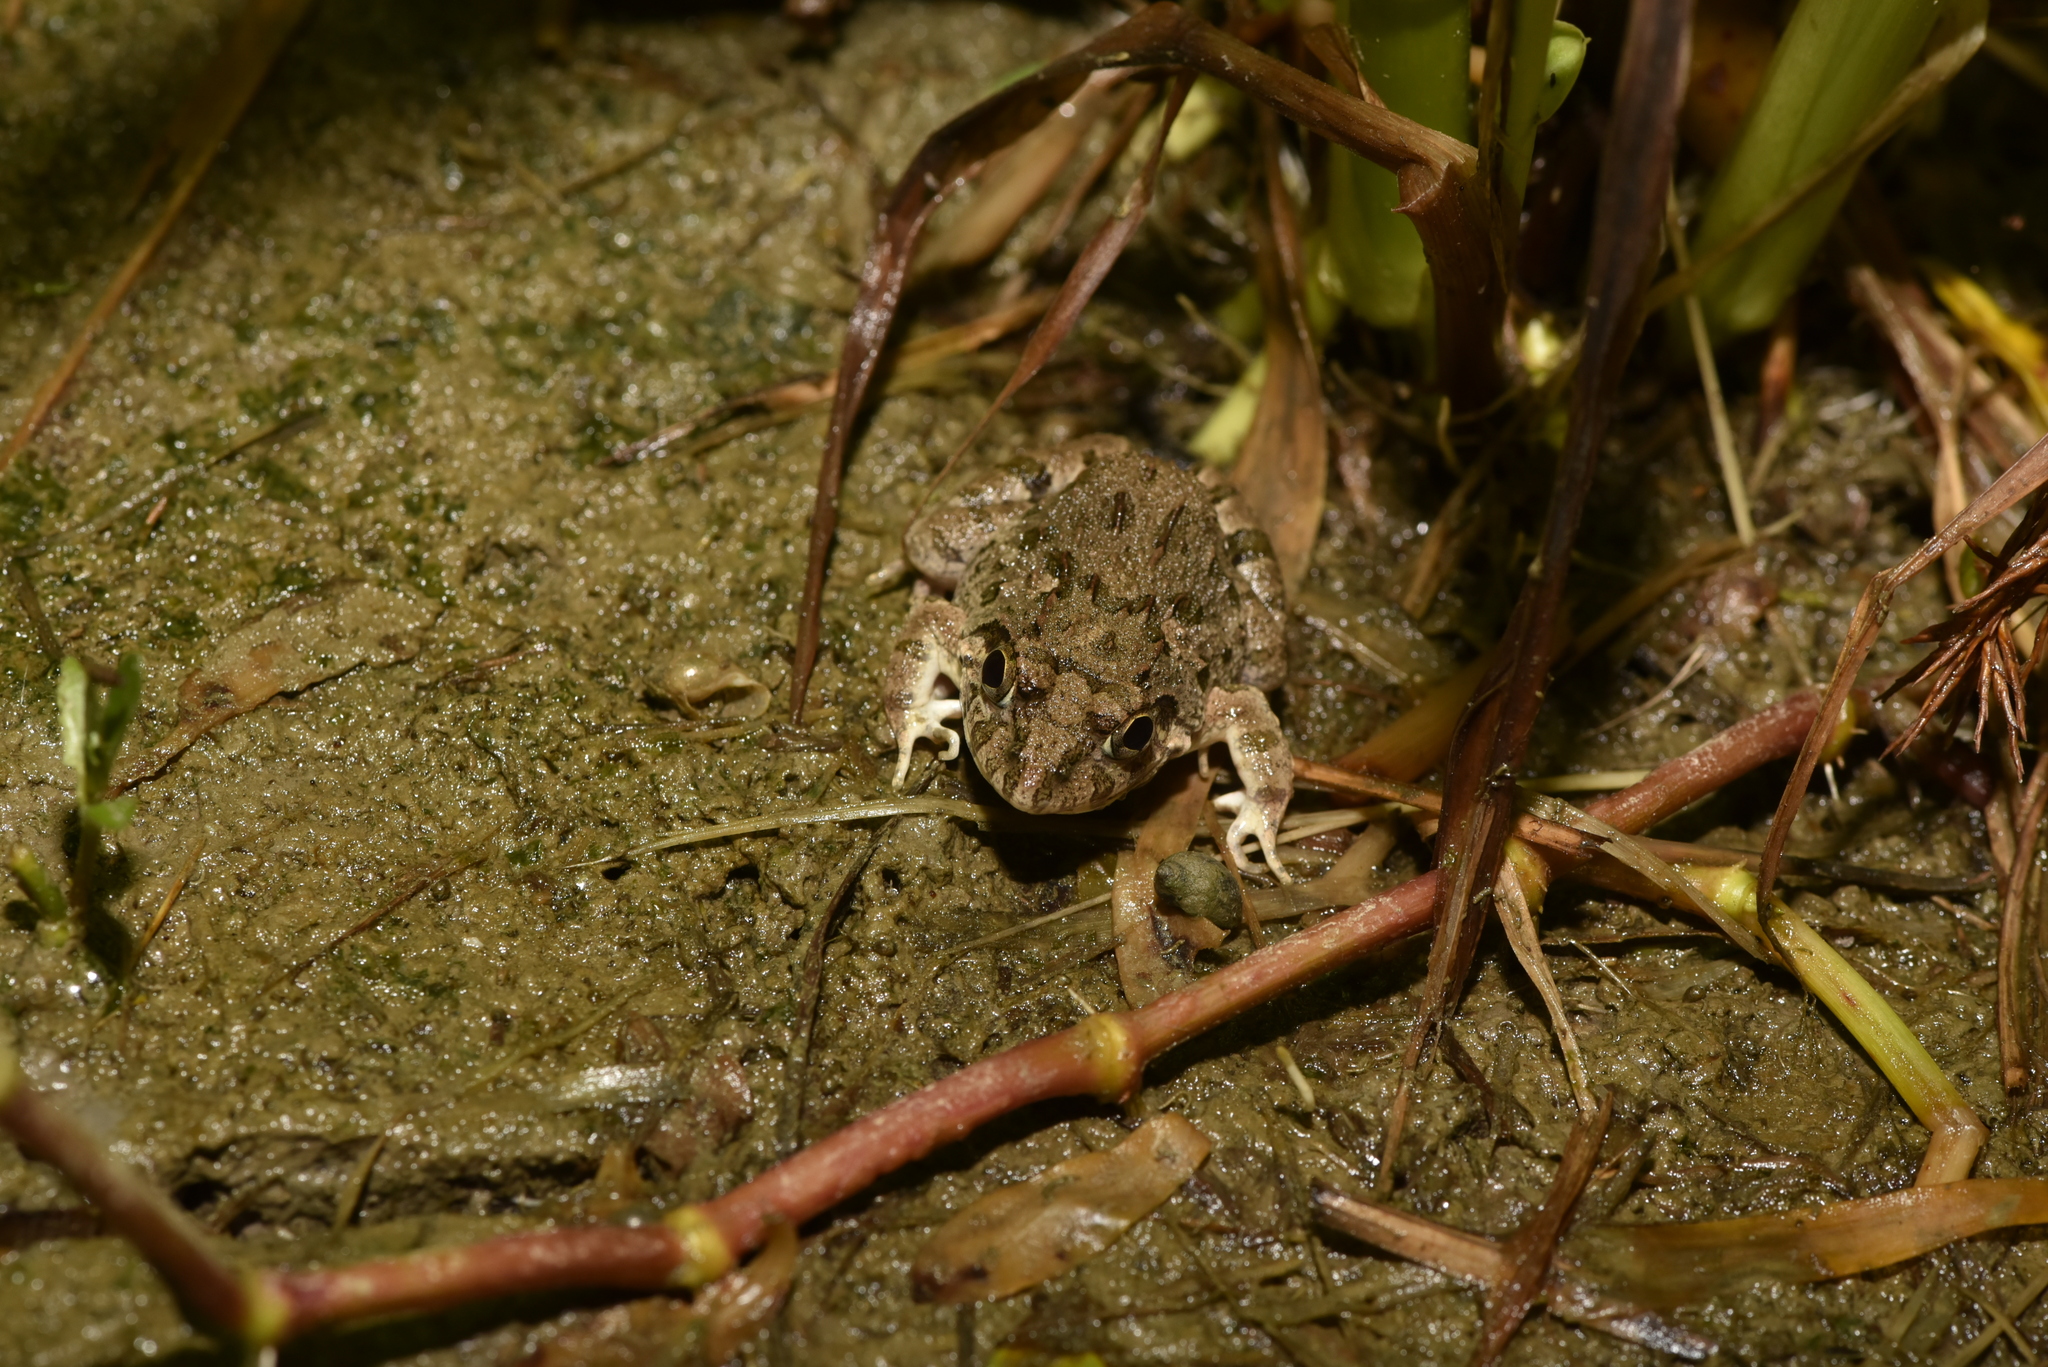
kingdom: Animalia
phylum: Chordata
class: Amphibia
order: Anura
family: Dicroglossidae
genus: Fejervarya
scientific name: Fejervarya limnocharis
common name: Asian grass frog/common pond frog/field frog/grass frog/indian rice frog
